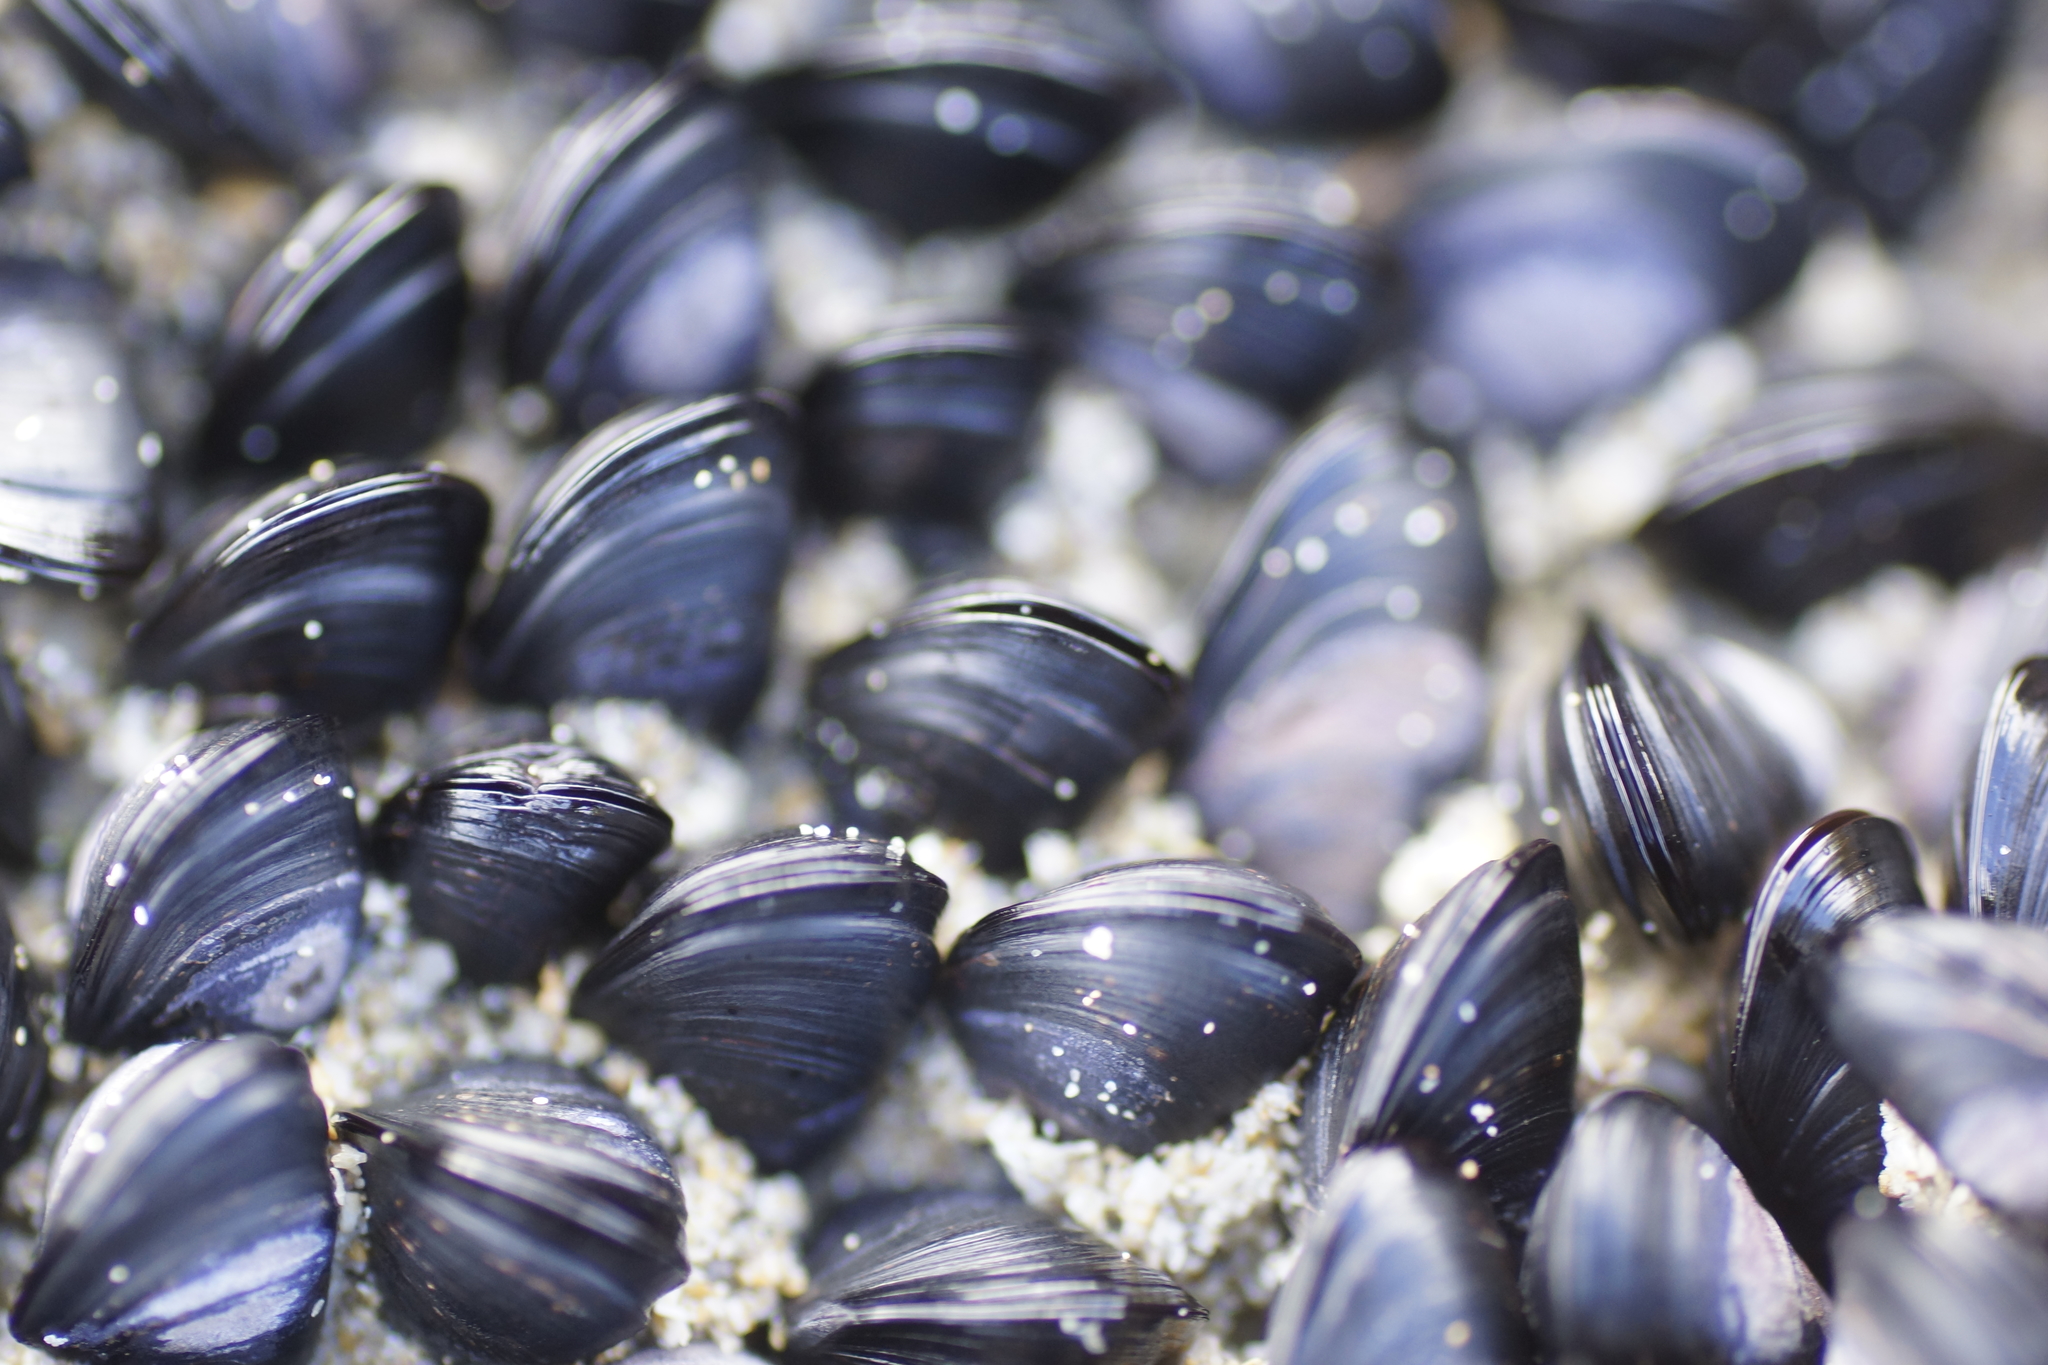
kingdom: Animalia
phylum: Mollusca
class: Bivalvia
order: Mytilida
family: Mytilidae
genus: Xenostrobus
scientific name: Xenostrobus pulex
